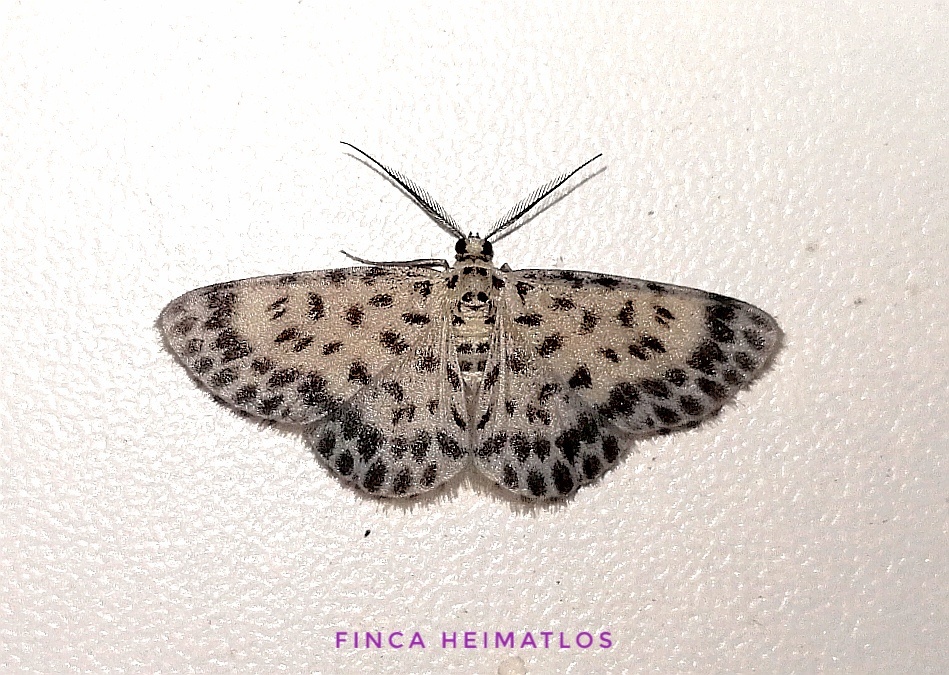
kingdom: Animalia
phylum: Arthropoda
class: Insecta
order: Lepidoptera
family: Geometridae
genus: Hymenomima
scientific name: Hymenomima seriata
